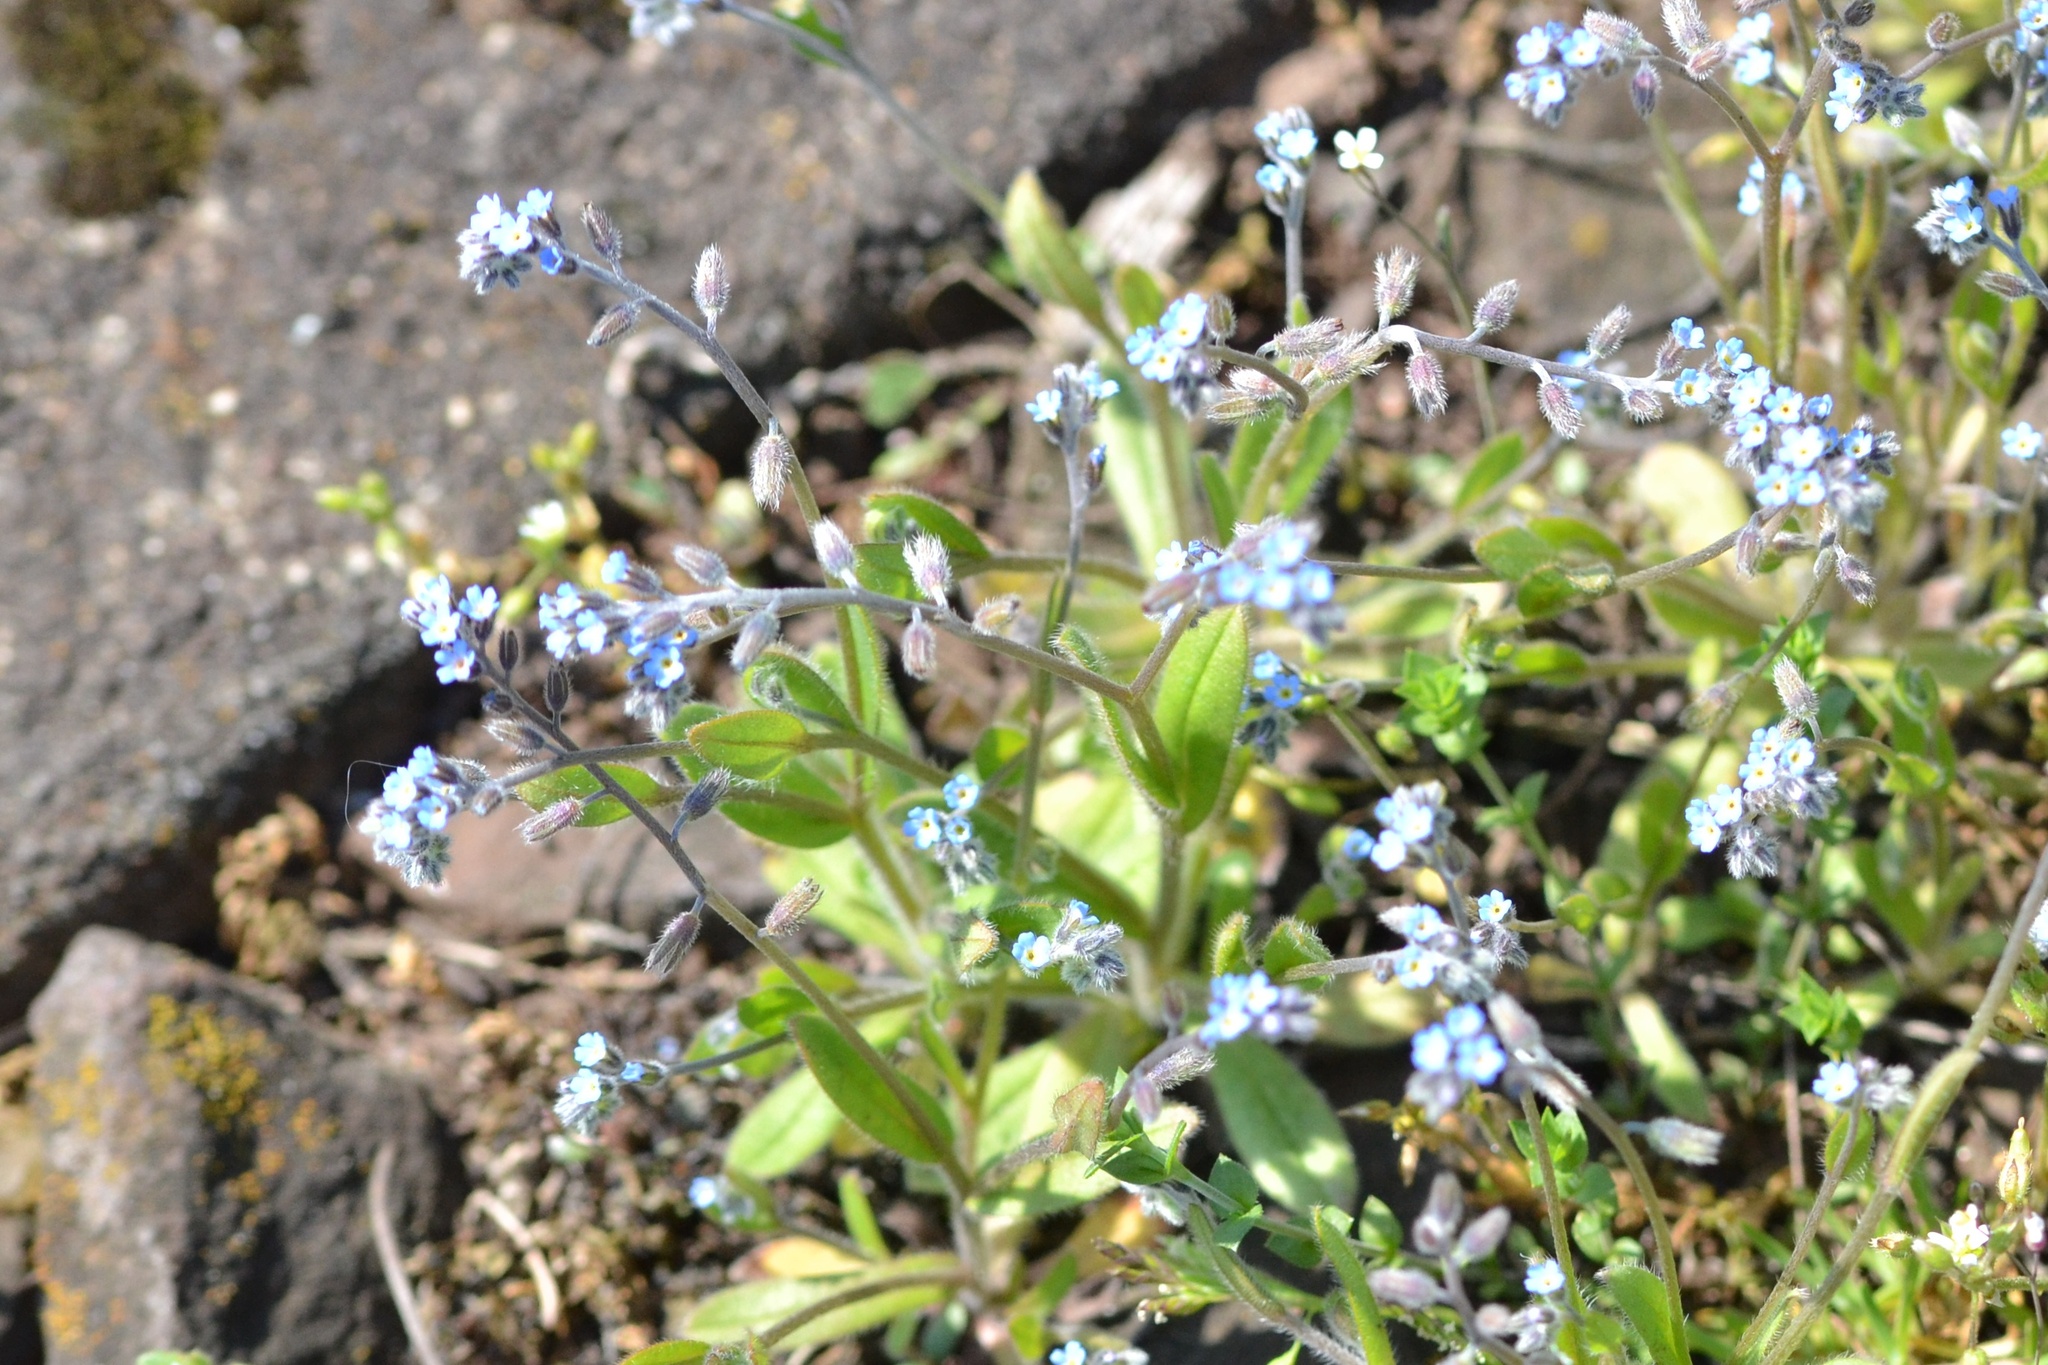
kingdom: Plantae
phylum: Tracheophyta
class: Magnoliopsida
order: Boraginales
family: Boraginaceae
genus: Myosotis
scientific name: Myosotis ramosissima
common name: Early forget-me-not
